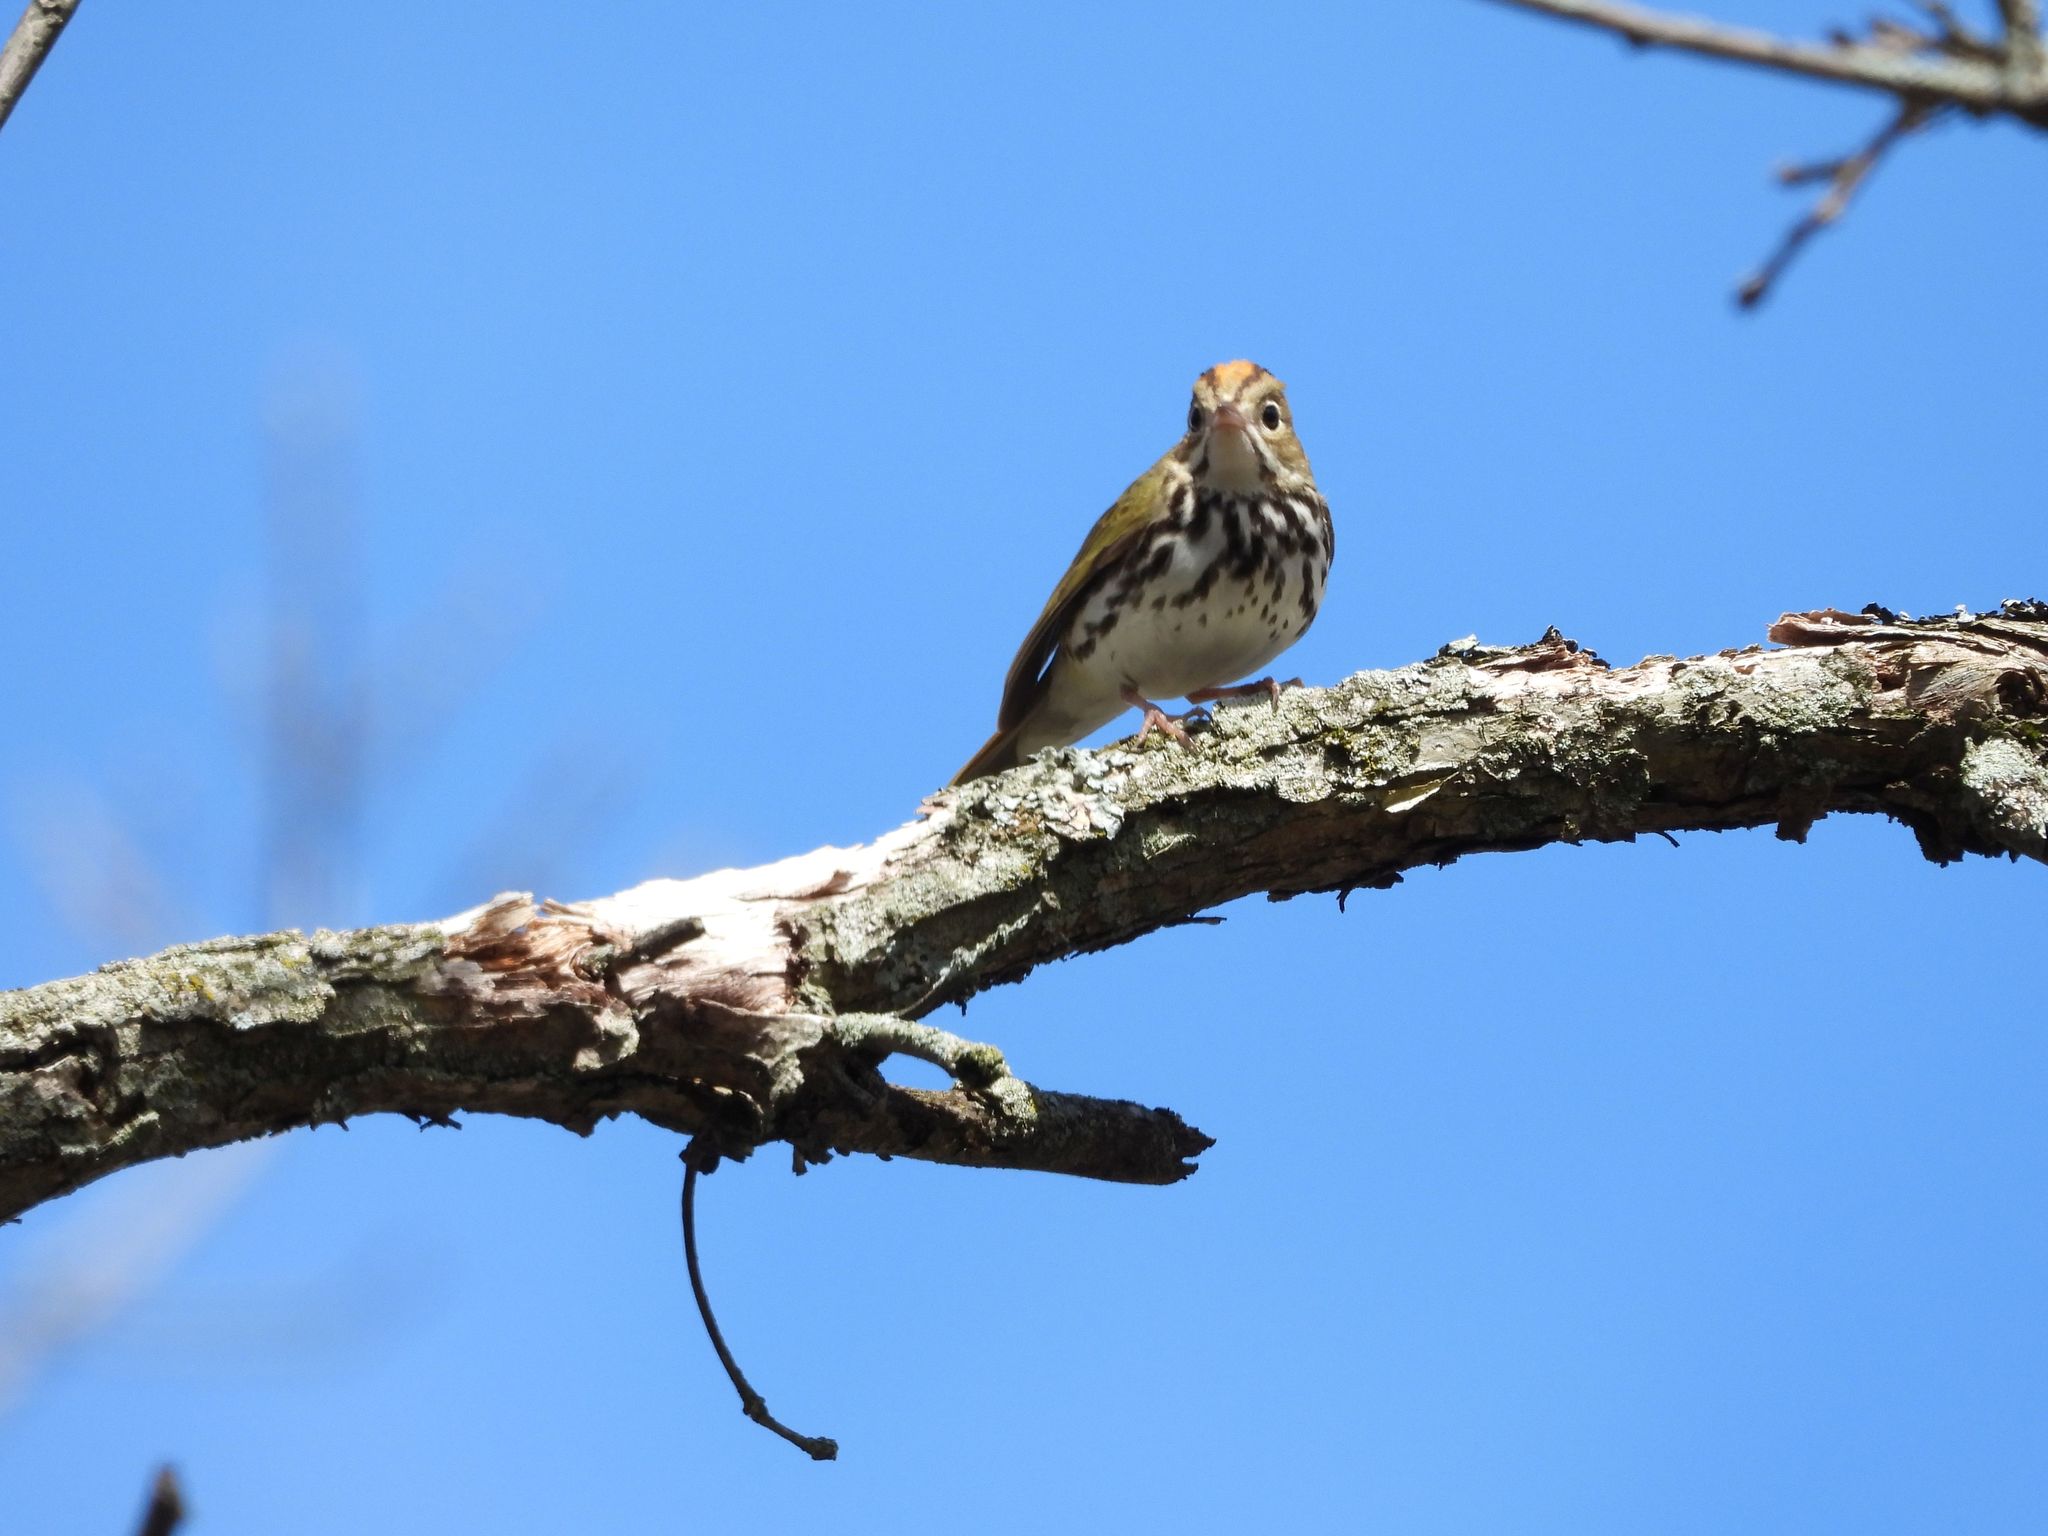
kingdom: Animalia
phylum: Chordata
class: Aves
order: Passeriformes
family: Parulidae
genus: Seiurus
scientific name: Seiurus aurocapilla
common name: Ovenbird
